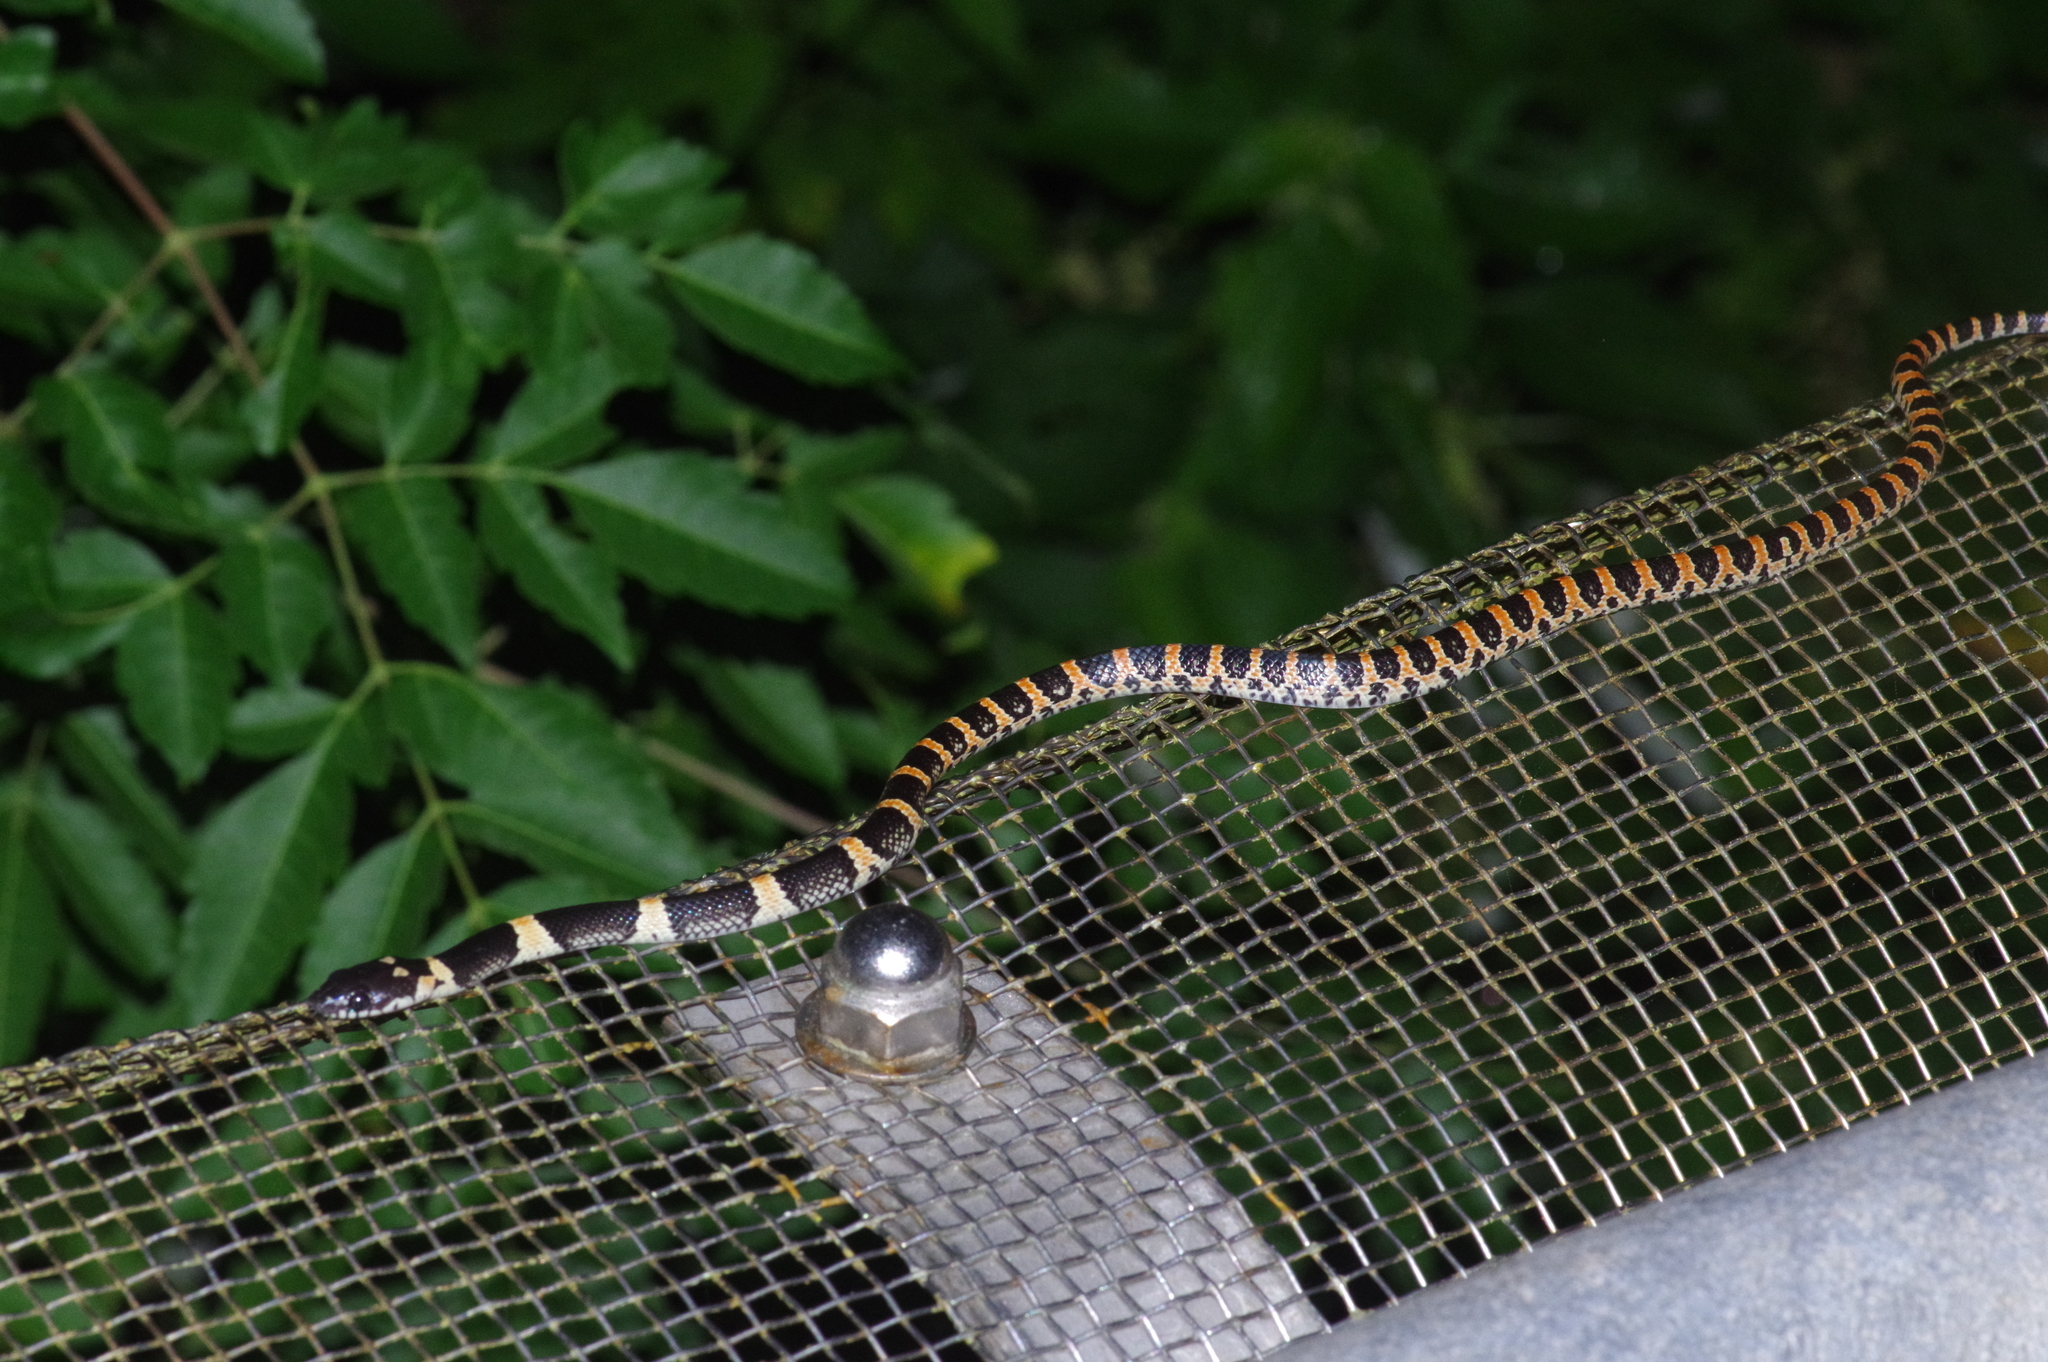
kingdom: Animalia
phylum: Chordata
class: Squamata
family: Colubridae
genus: Lycodon
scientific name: Lycodon semicarinatus
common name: Loo-choo big-tooth snake
